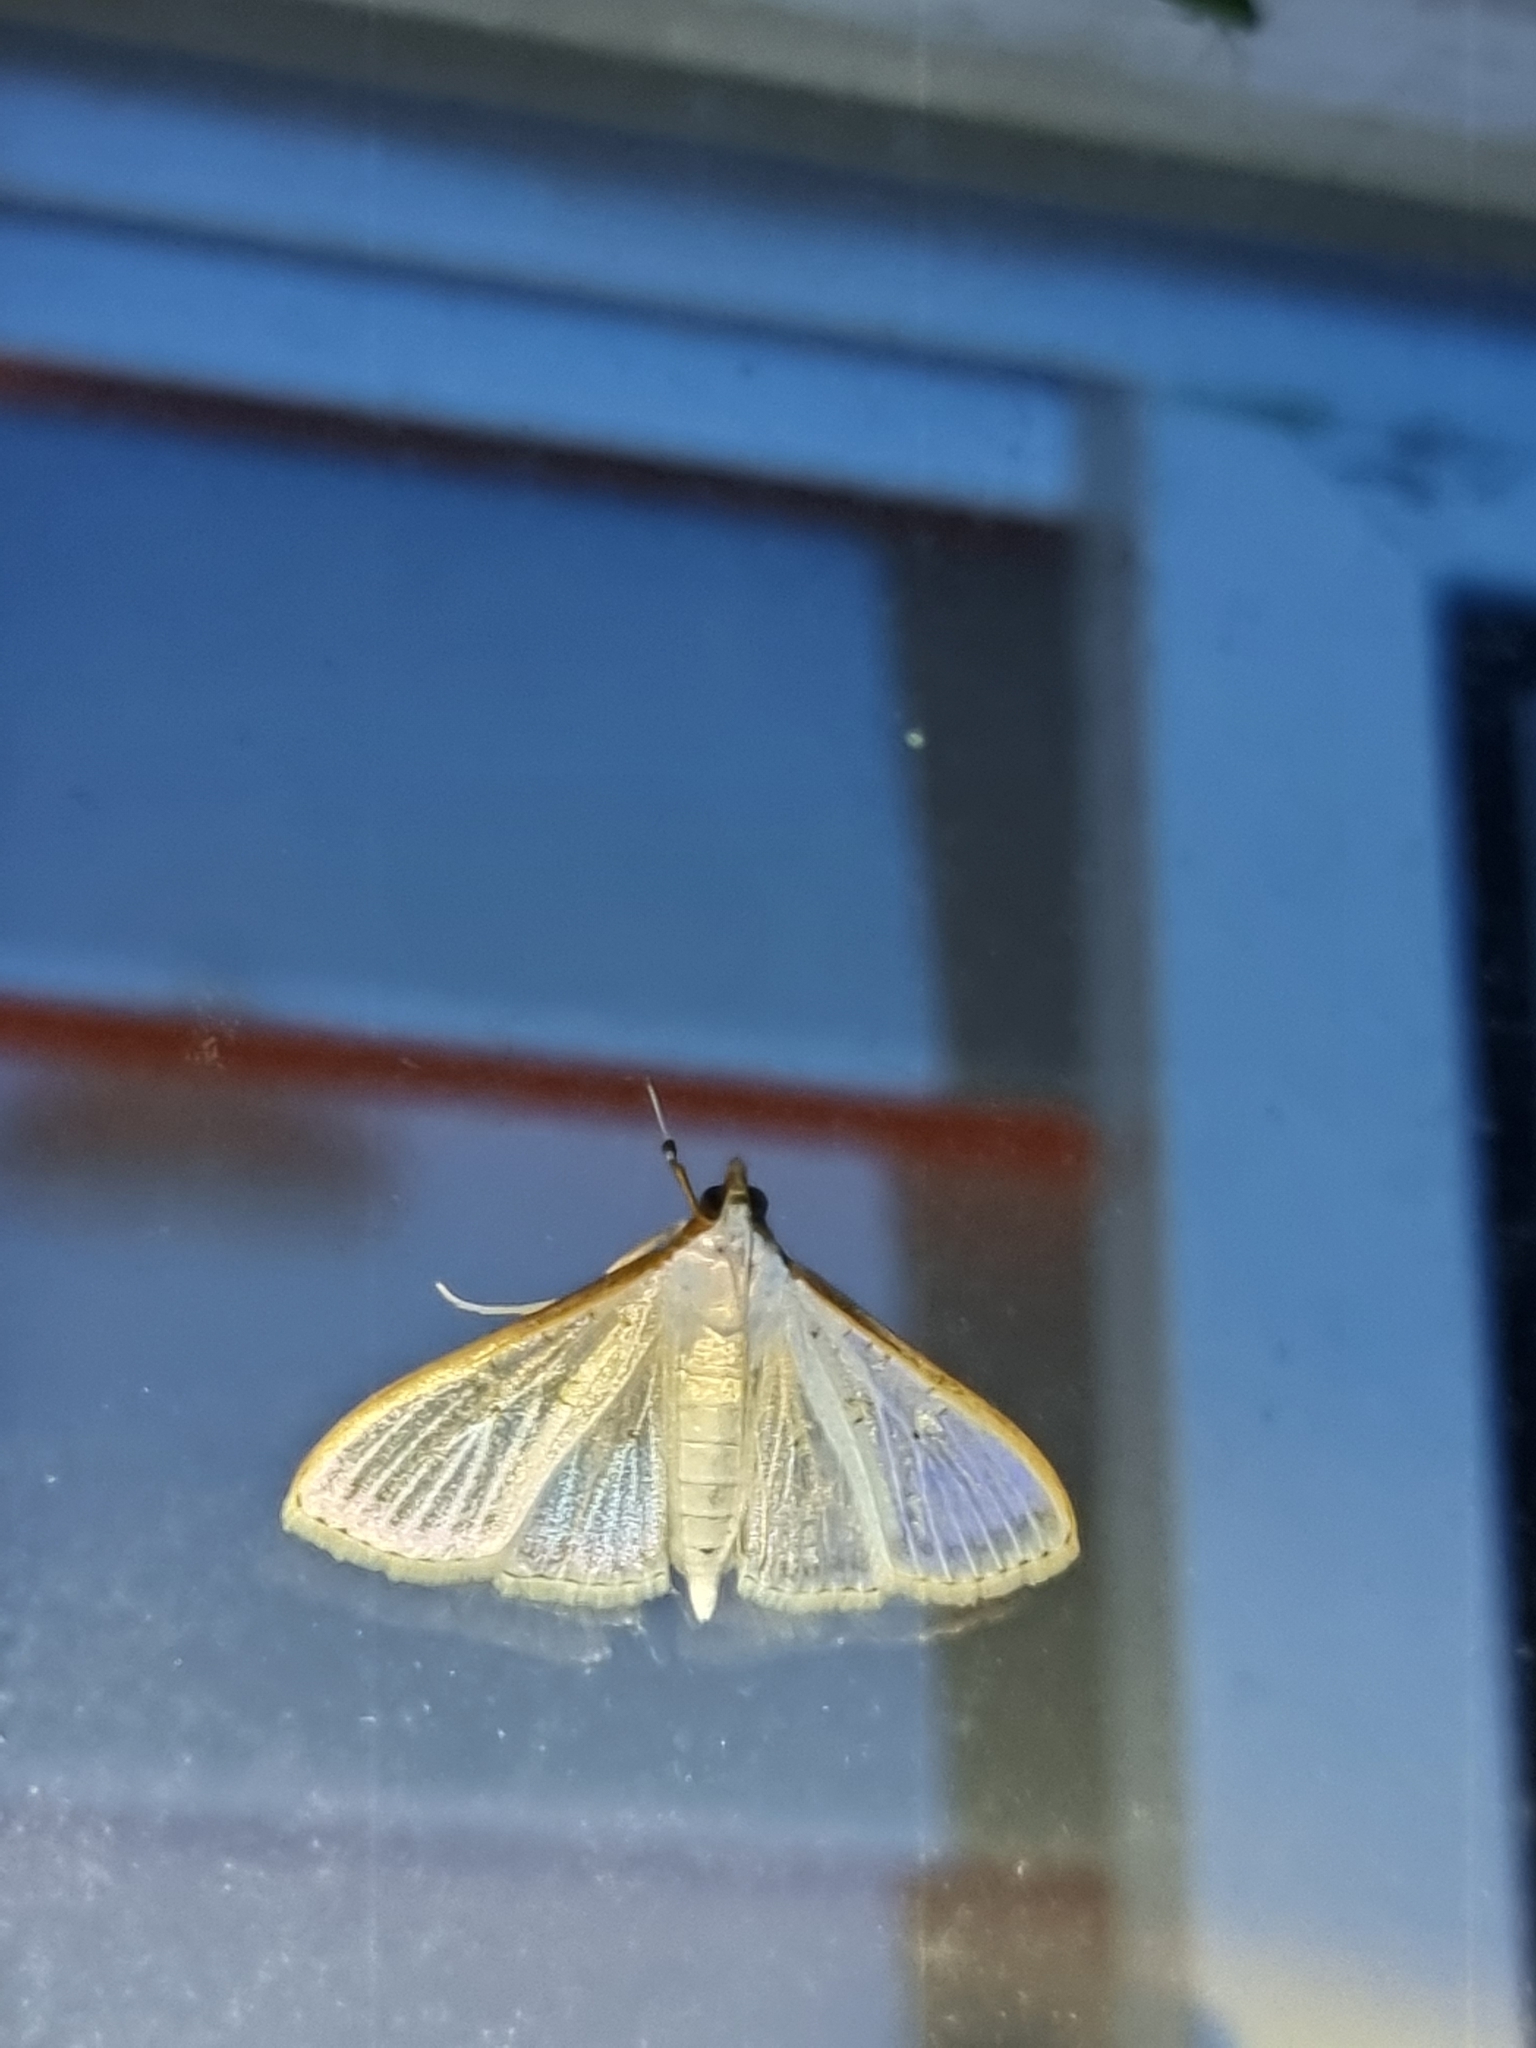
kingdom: Animalia
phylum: Arthropoda
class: Insecta
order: Lepidoptera
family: Crambidae
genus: Palpita
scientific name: Palpita pratti
